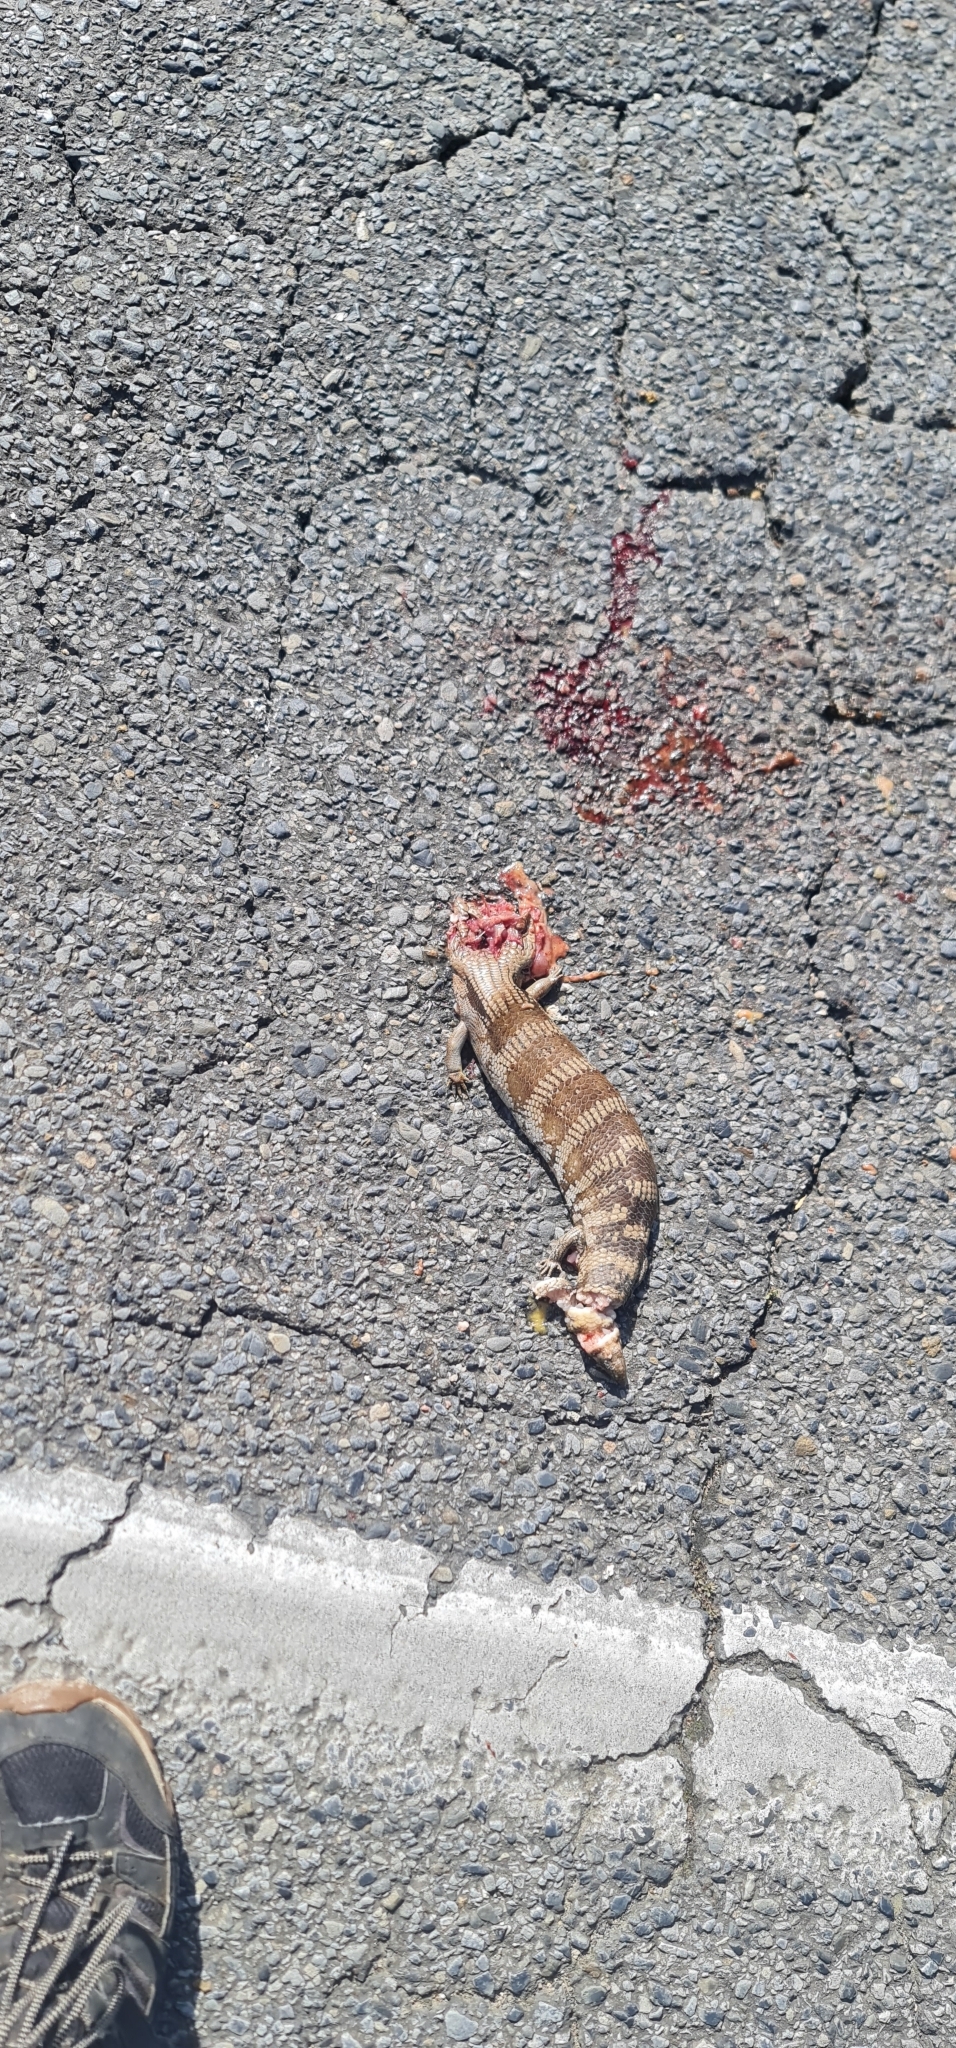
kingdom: Animalia
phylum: Chordata
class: Squamata
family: Scincidae
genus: Tiliqua
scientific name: Tiliqua scincoides
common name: Common bluetongue
